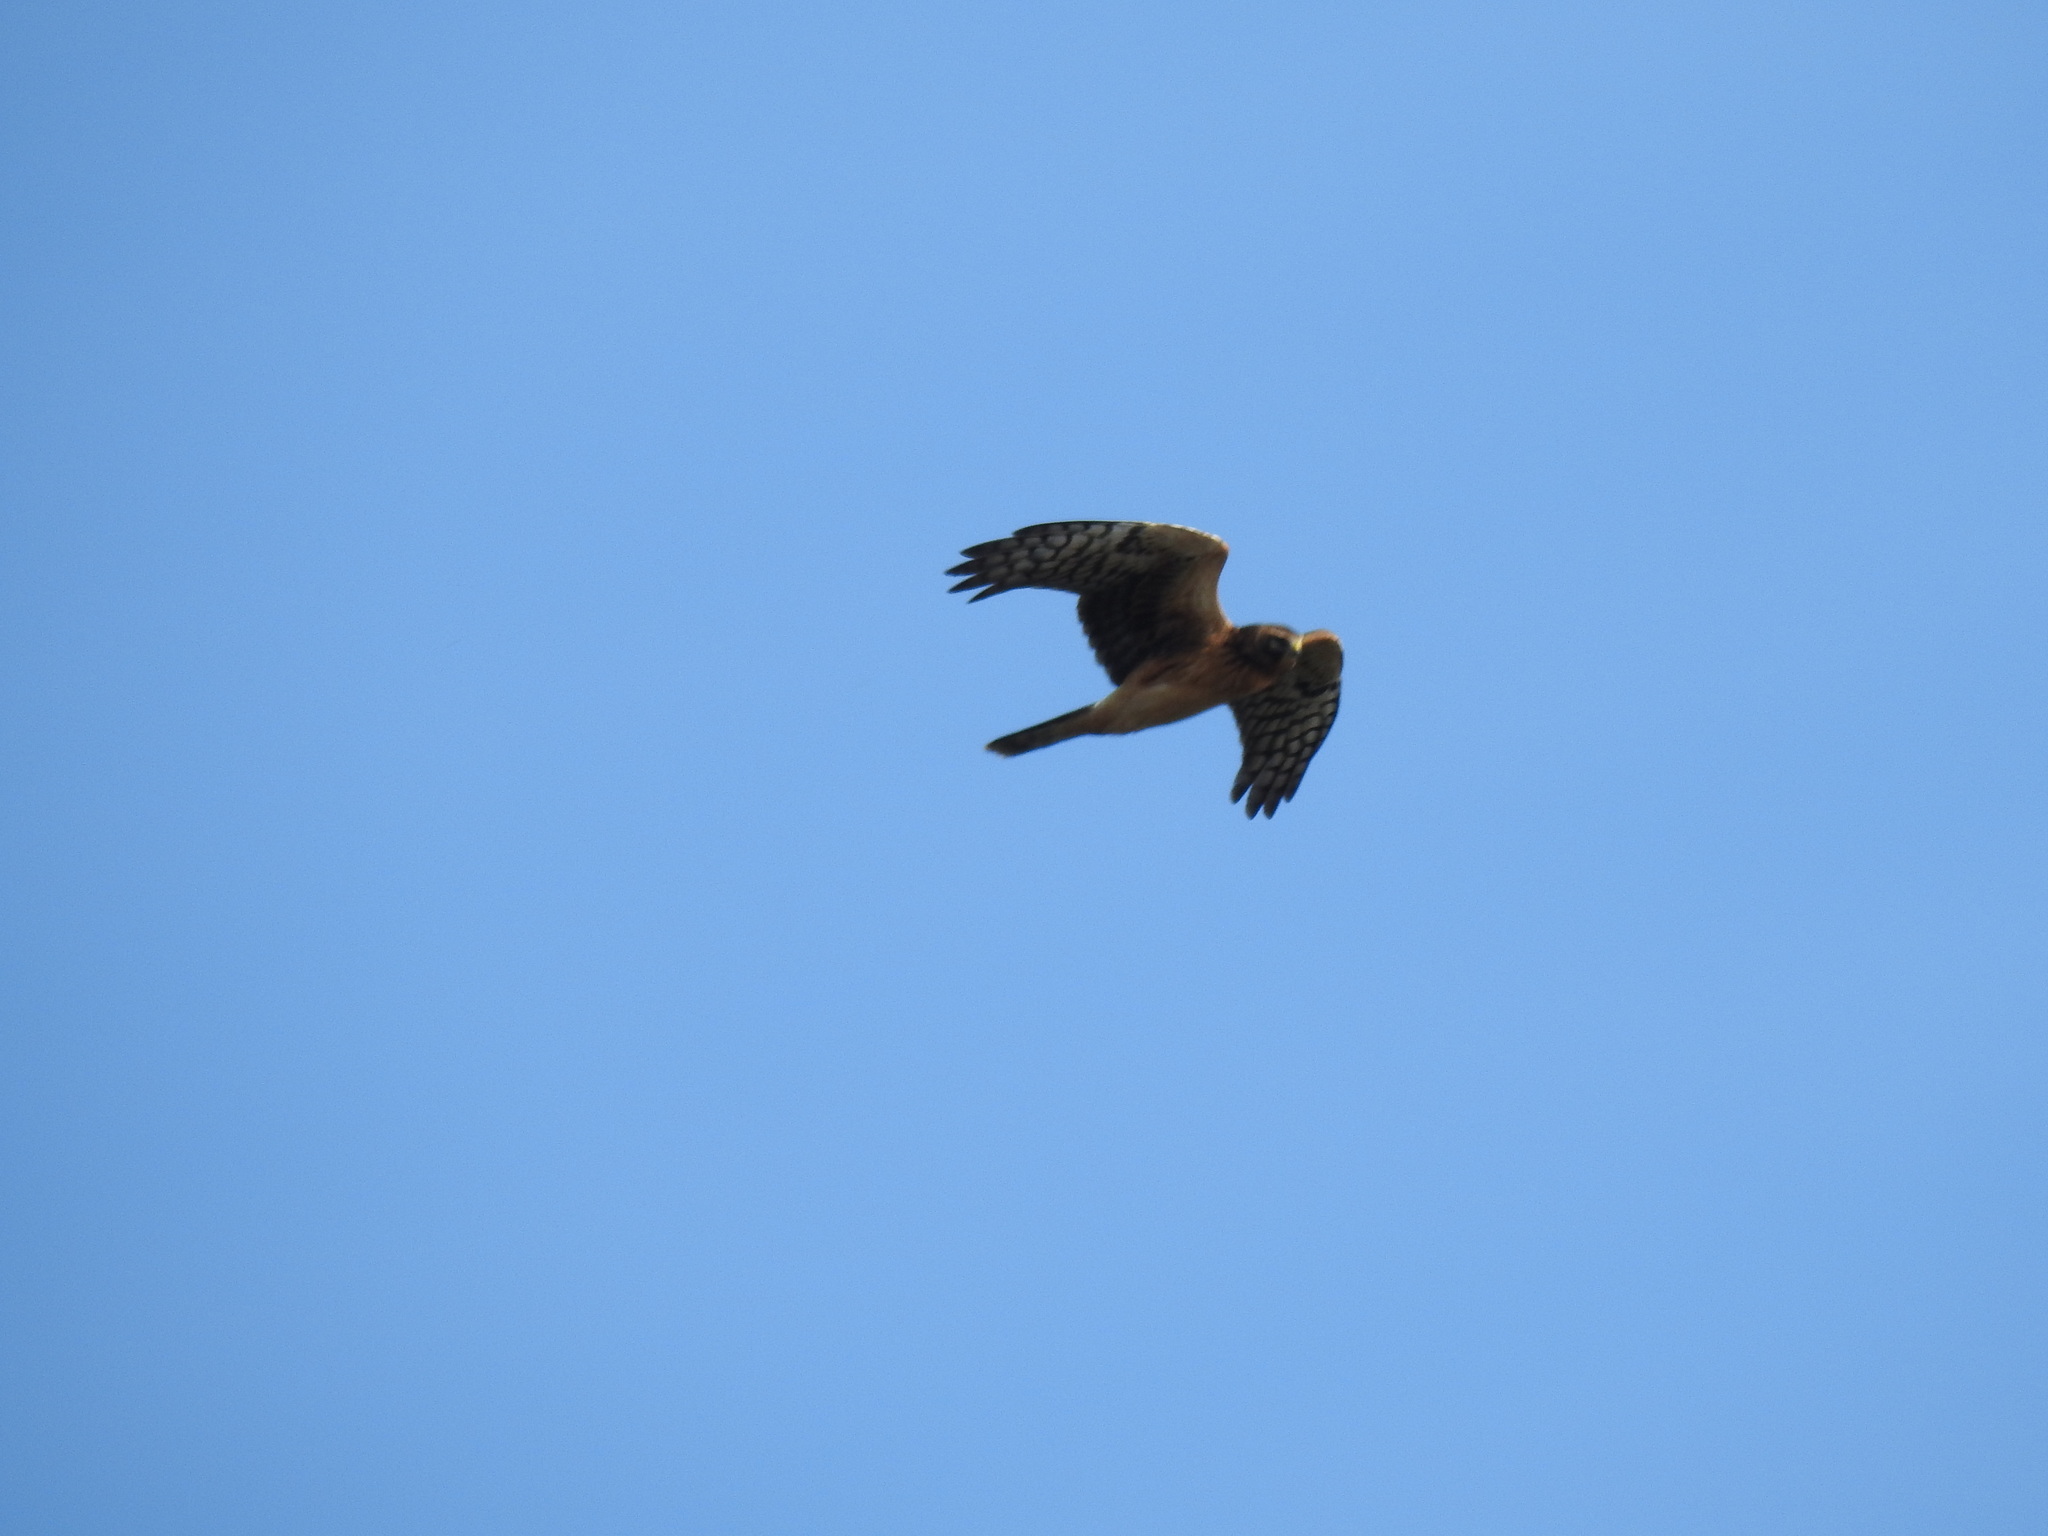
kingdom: Animalia
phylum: Chordata
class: Aves
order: Accipitriformes
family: Accipitridae
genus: Circus
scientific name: Circus cyaneus
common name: Hen harrier
